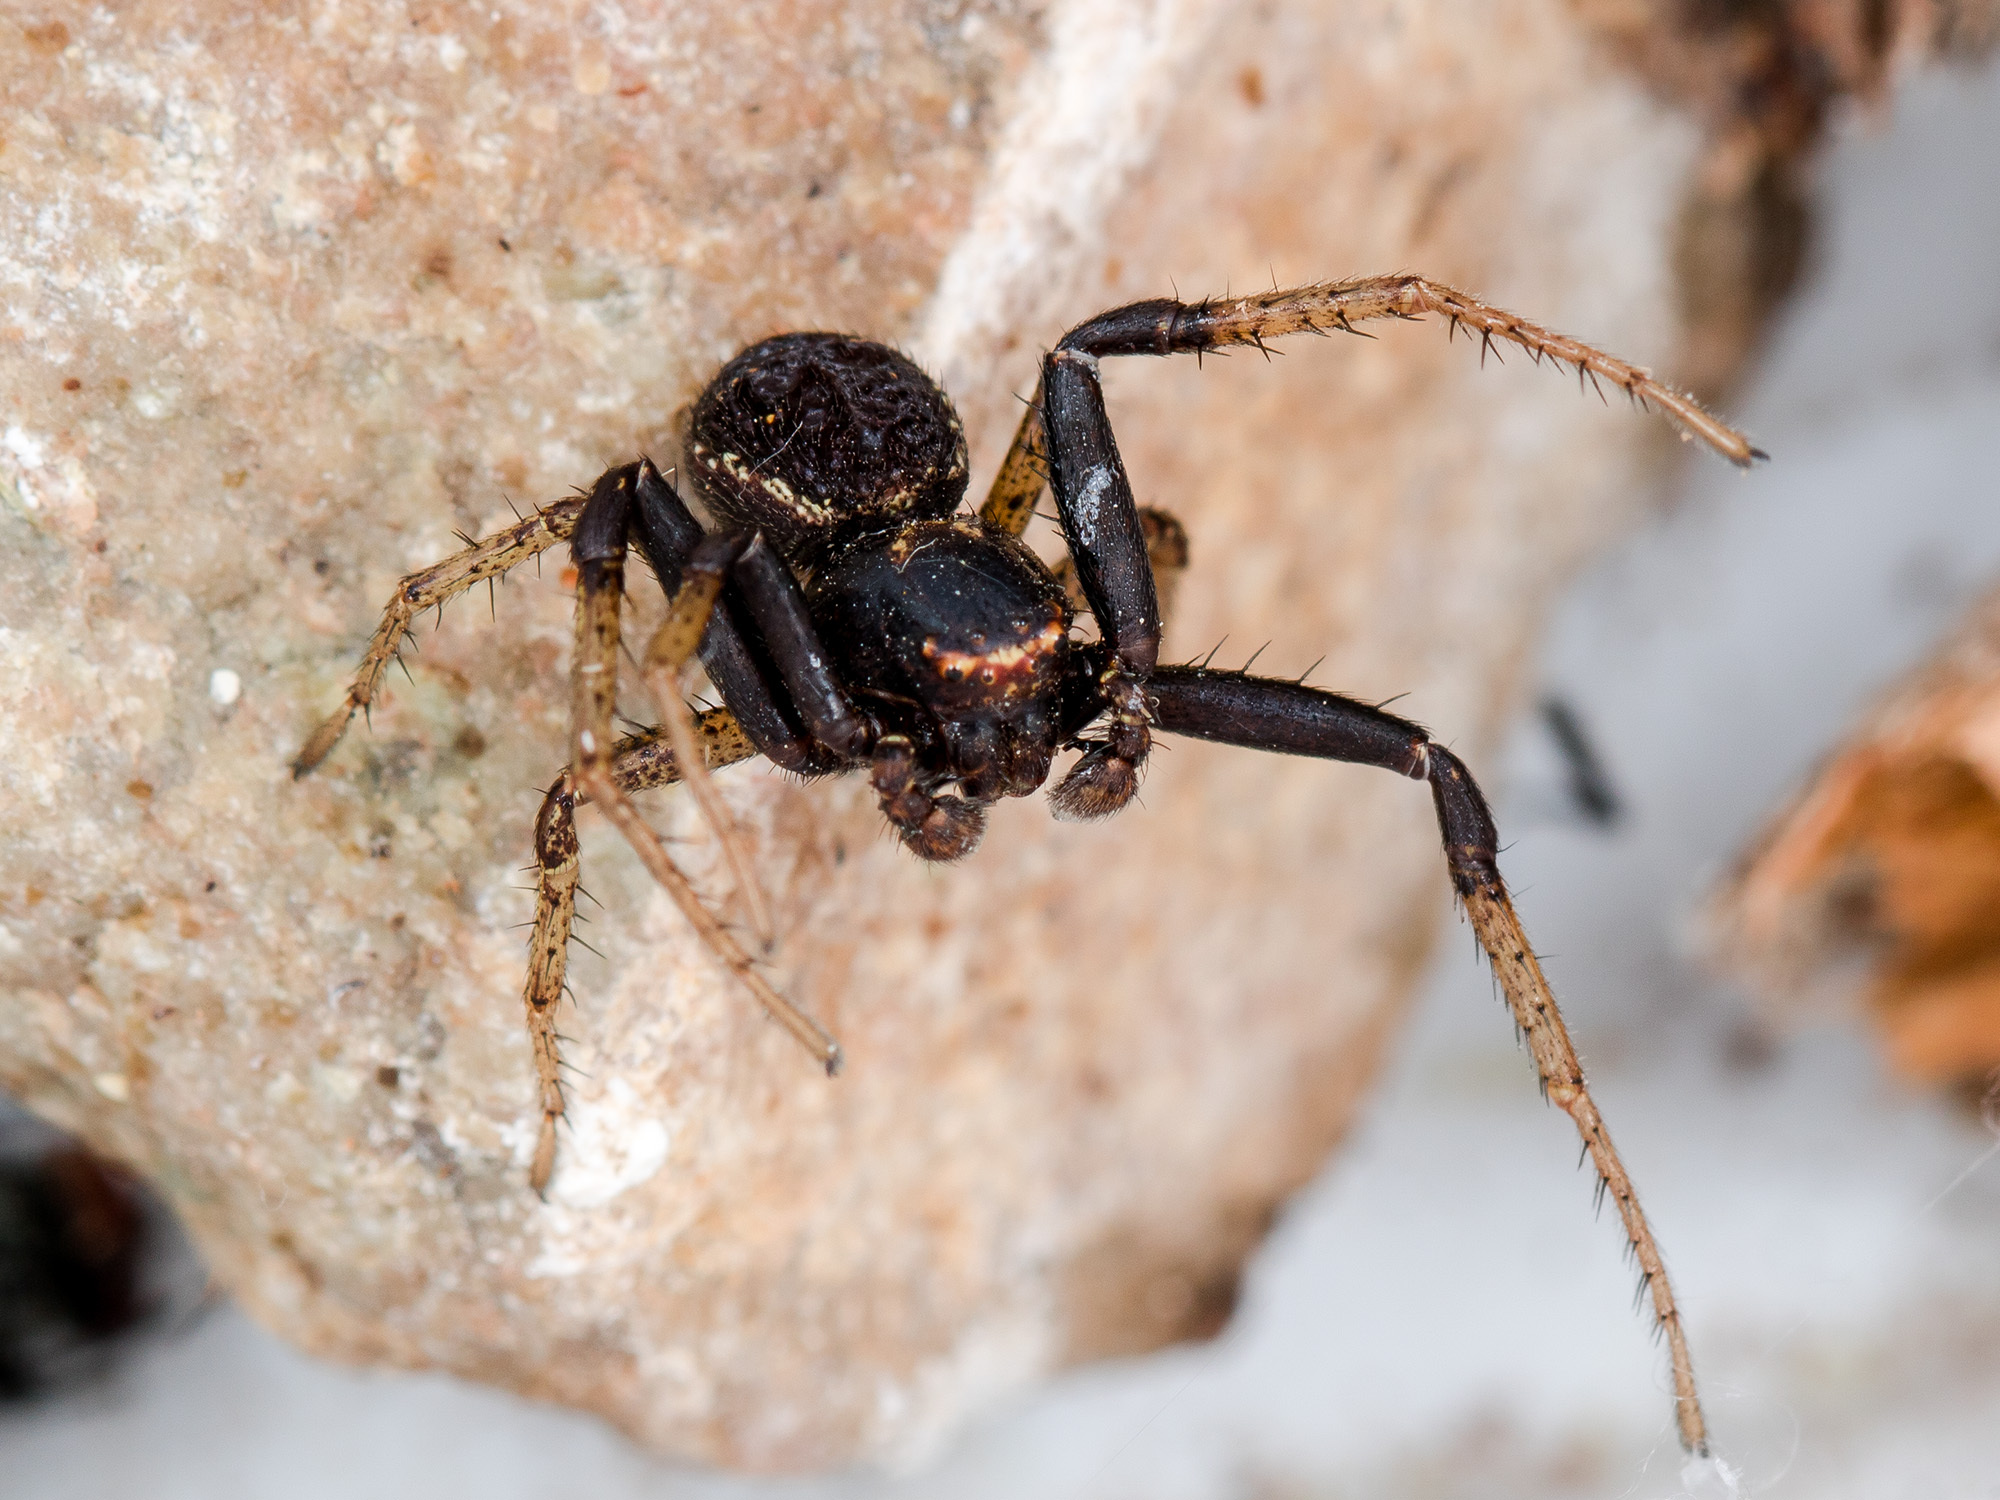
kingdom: Animalia
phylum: Arthropoda
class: Arachnida
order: Araneae
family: Thomisidae
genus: Xysticus
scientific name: Xysticus ephippiatus
